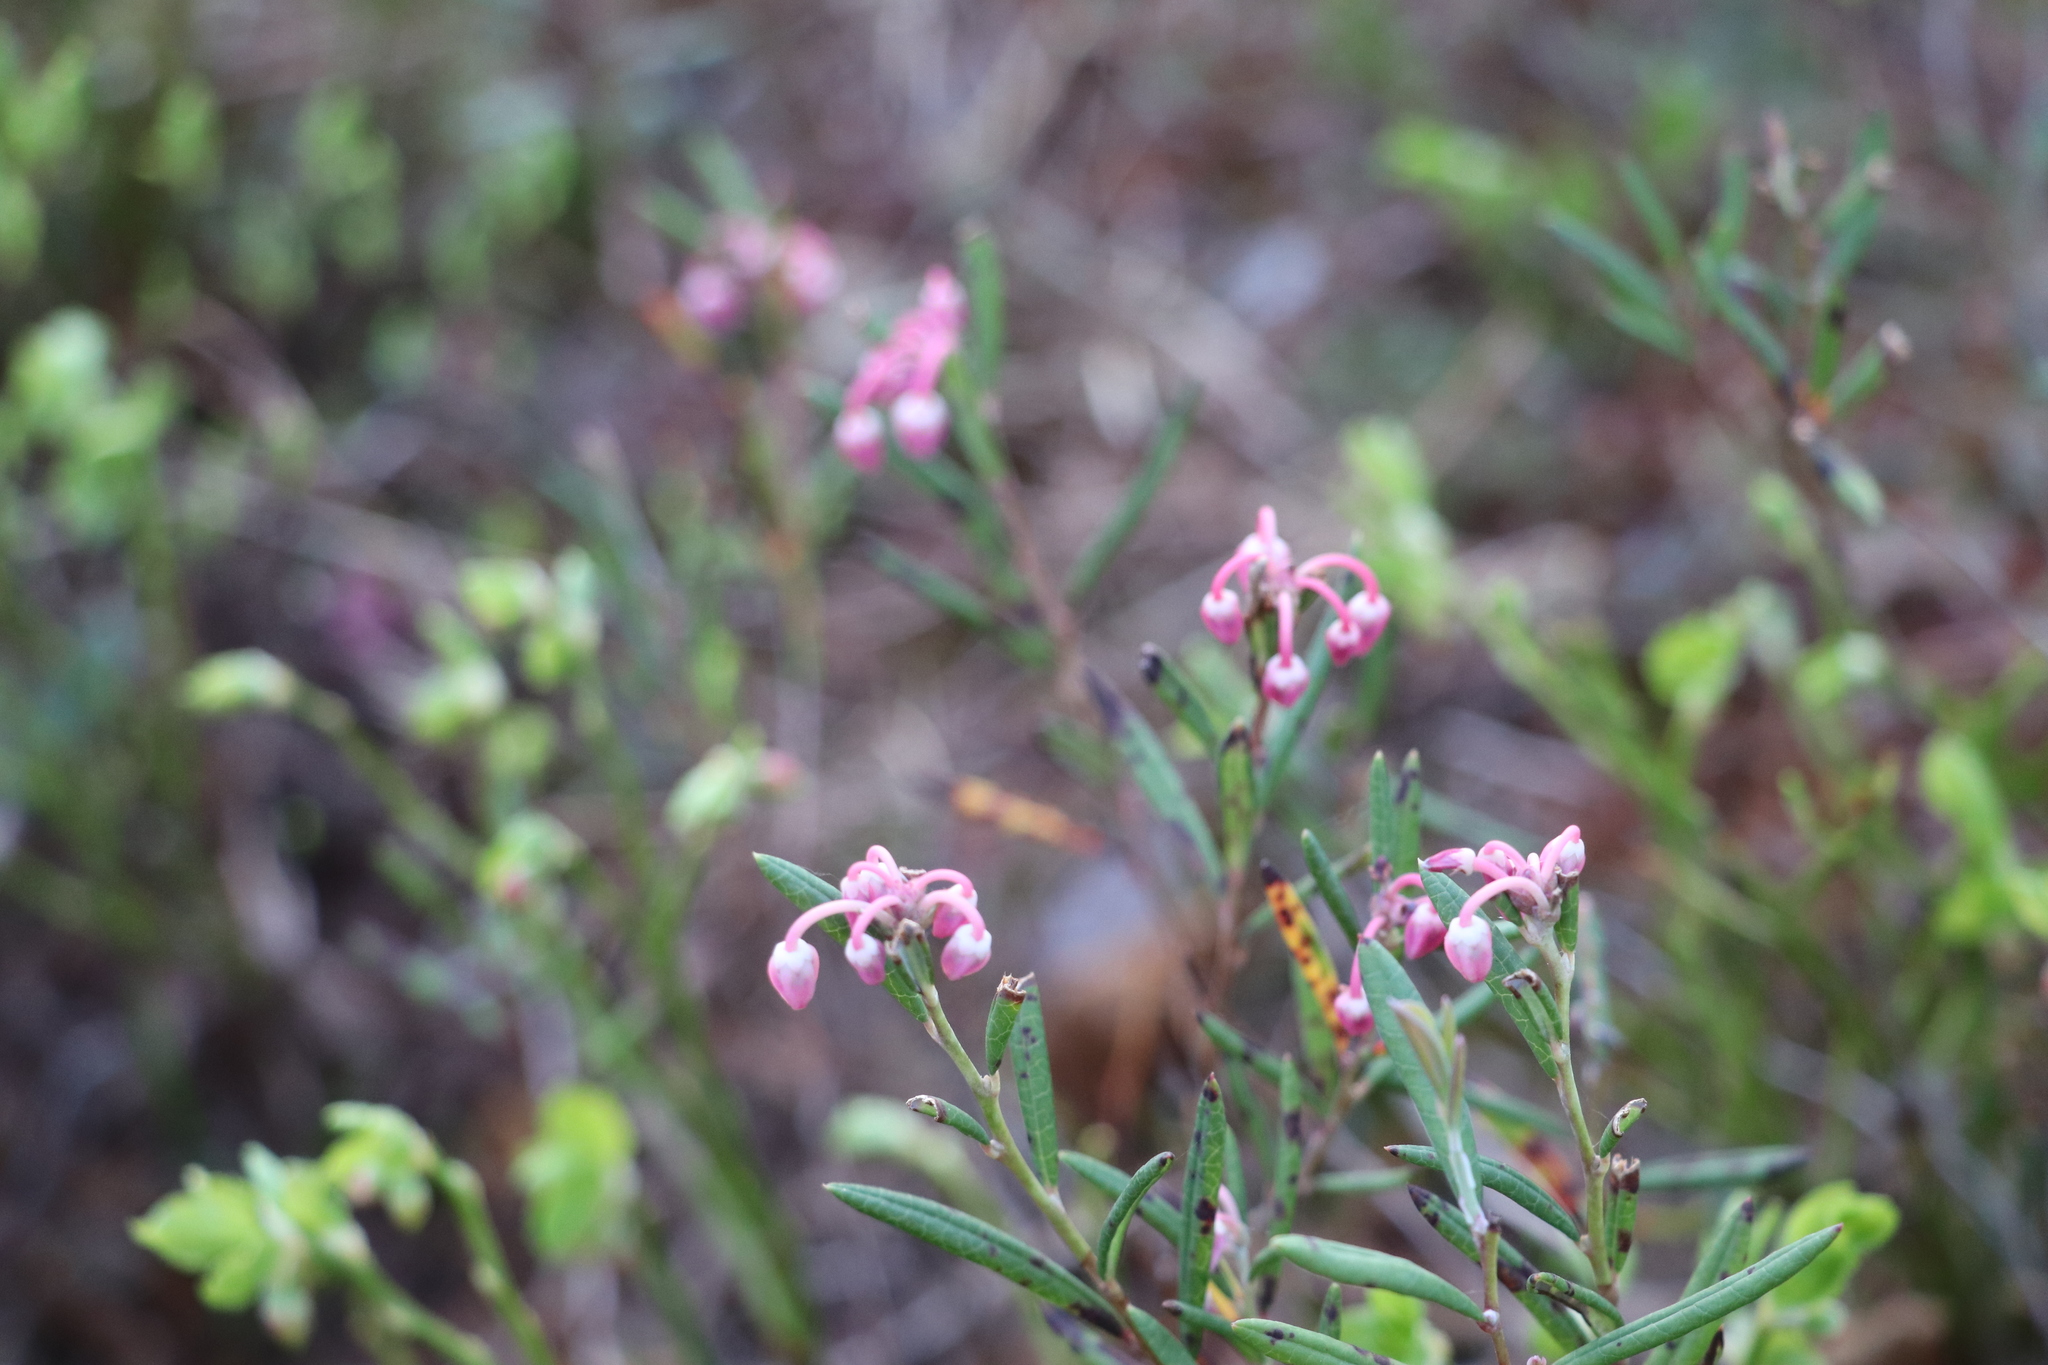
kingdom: Plantae
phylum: Tracheophyta
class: Magnoliopsida
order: Ericales
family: Ericaceae
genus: Andromeda
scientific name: Andromeda polifolia
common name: Bog-rosemary
